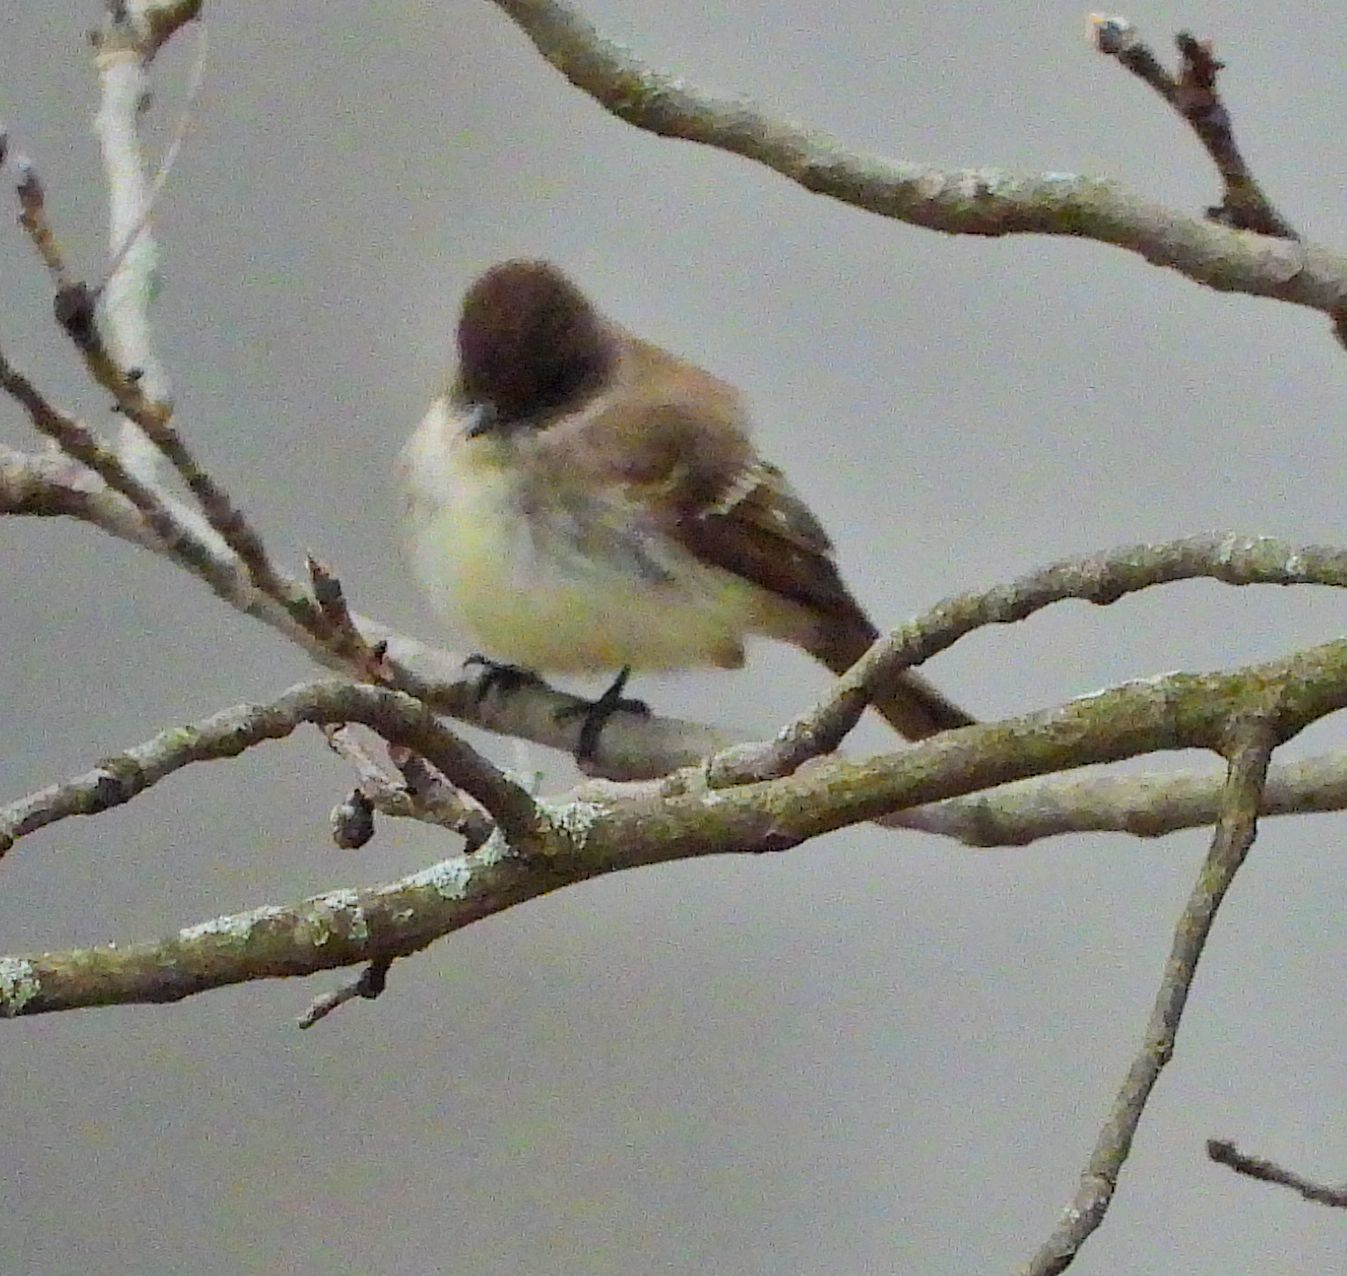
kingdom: Animalia
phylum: Chordata
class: Aves
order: Passeriformes
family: Tyrannidae
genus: Sayornis
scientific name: Sayornis phoebe
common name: Eastern phoebe
